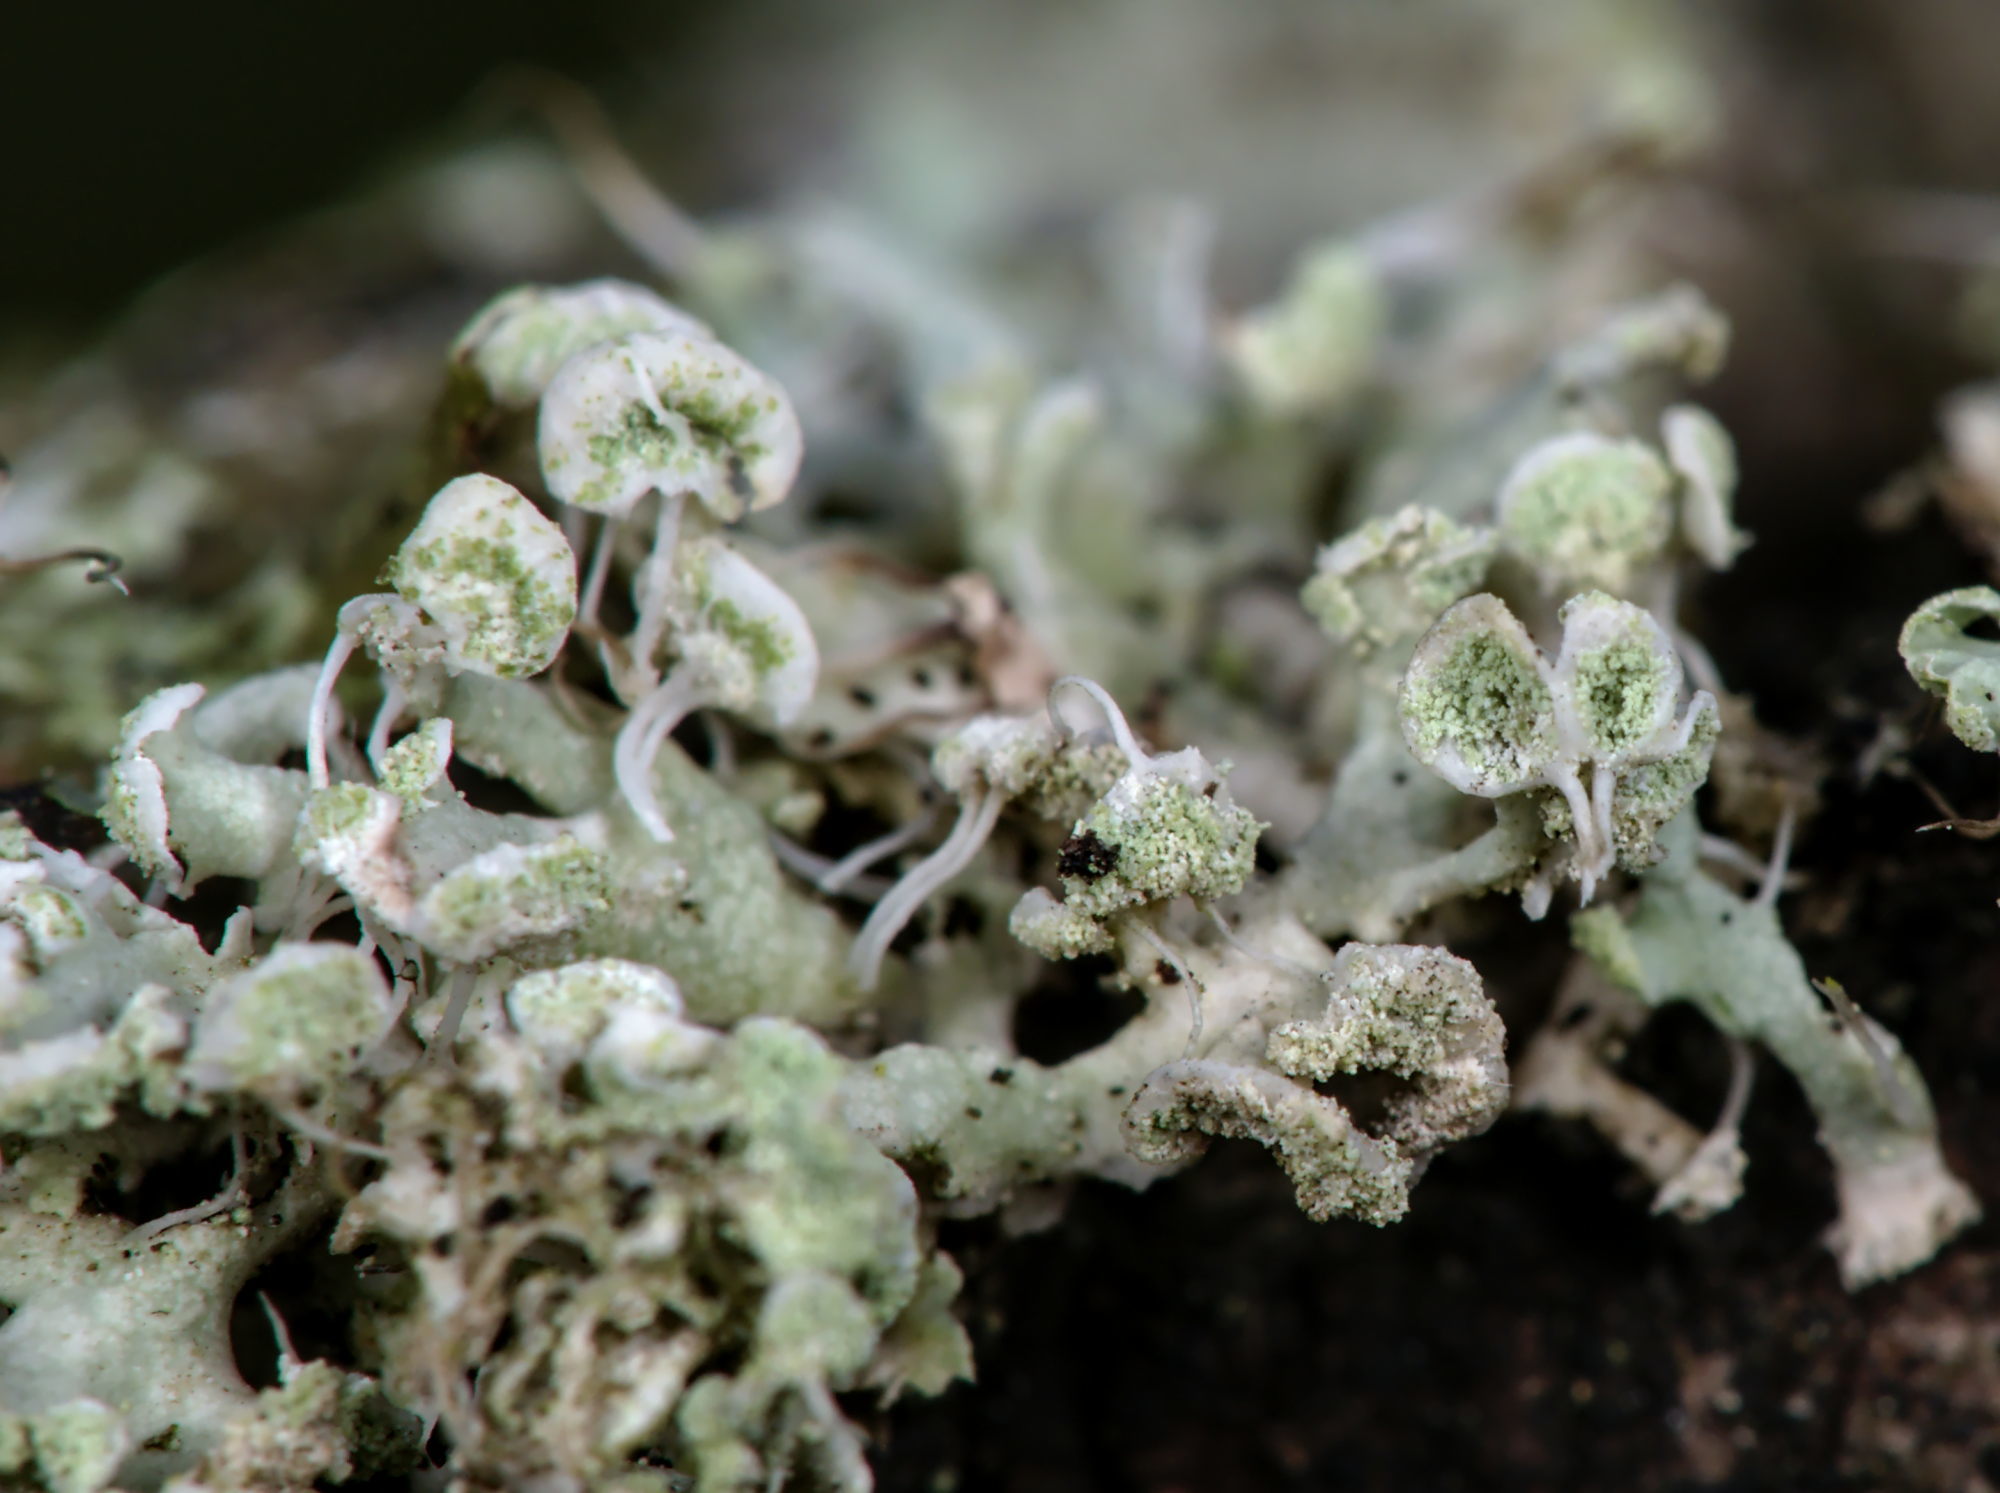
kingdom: Fungi
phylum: Ascomycota
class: Lecanoromycetes
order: Caliciales
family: Physciaceae
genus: Physcia
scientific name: Physcia adscendens
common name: Hooded rosette lichen
